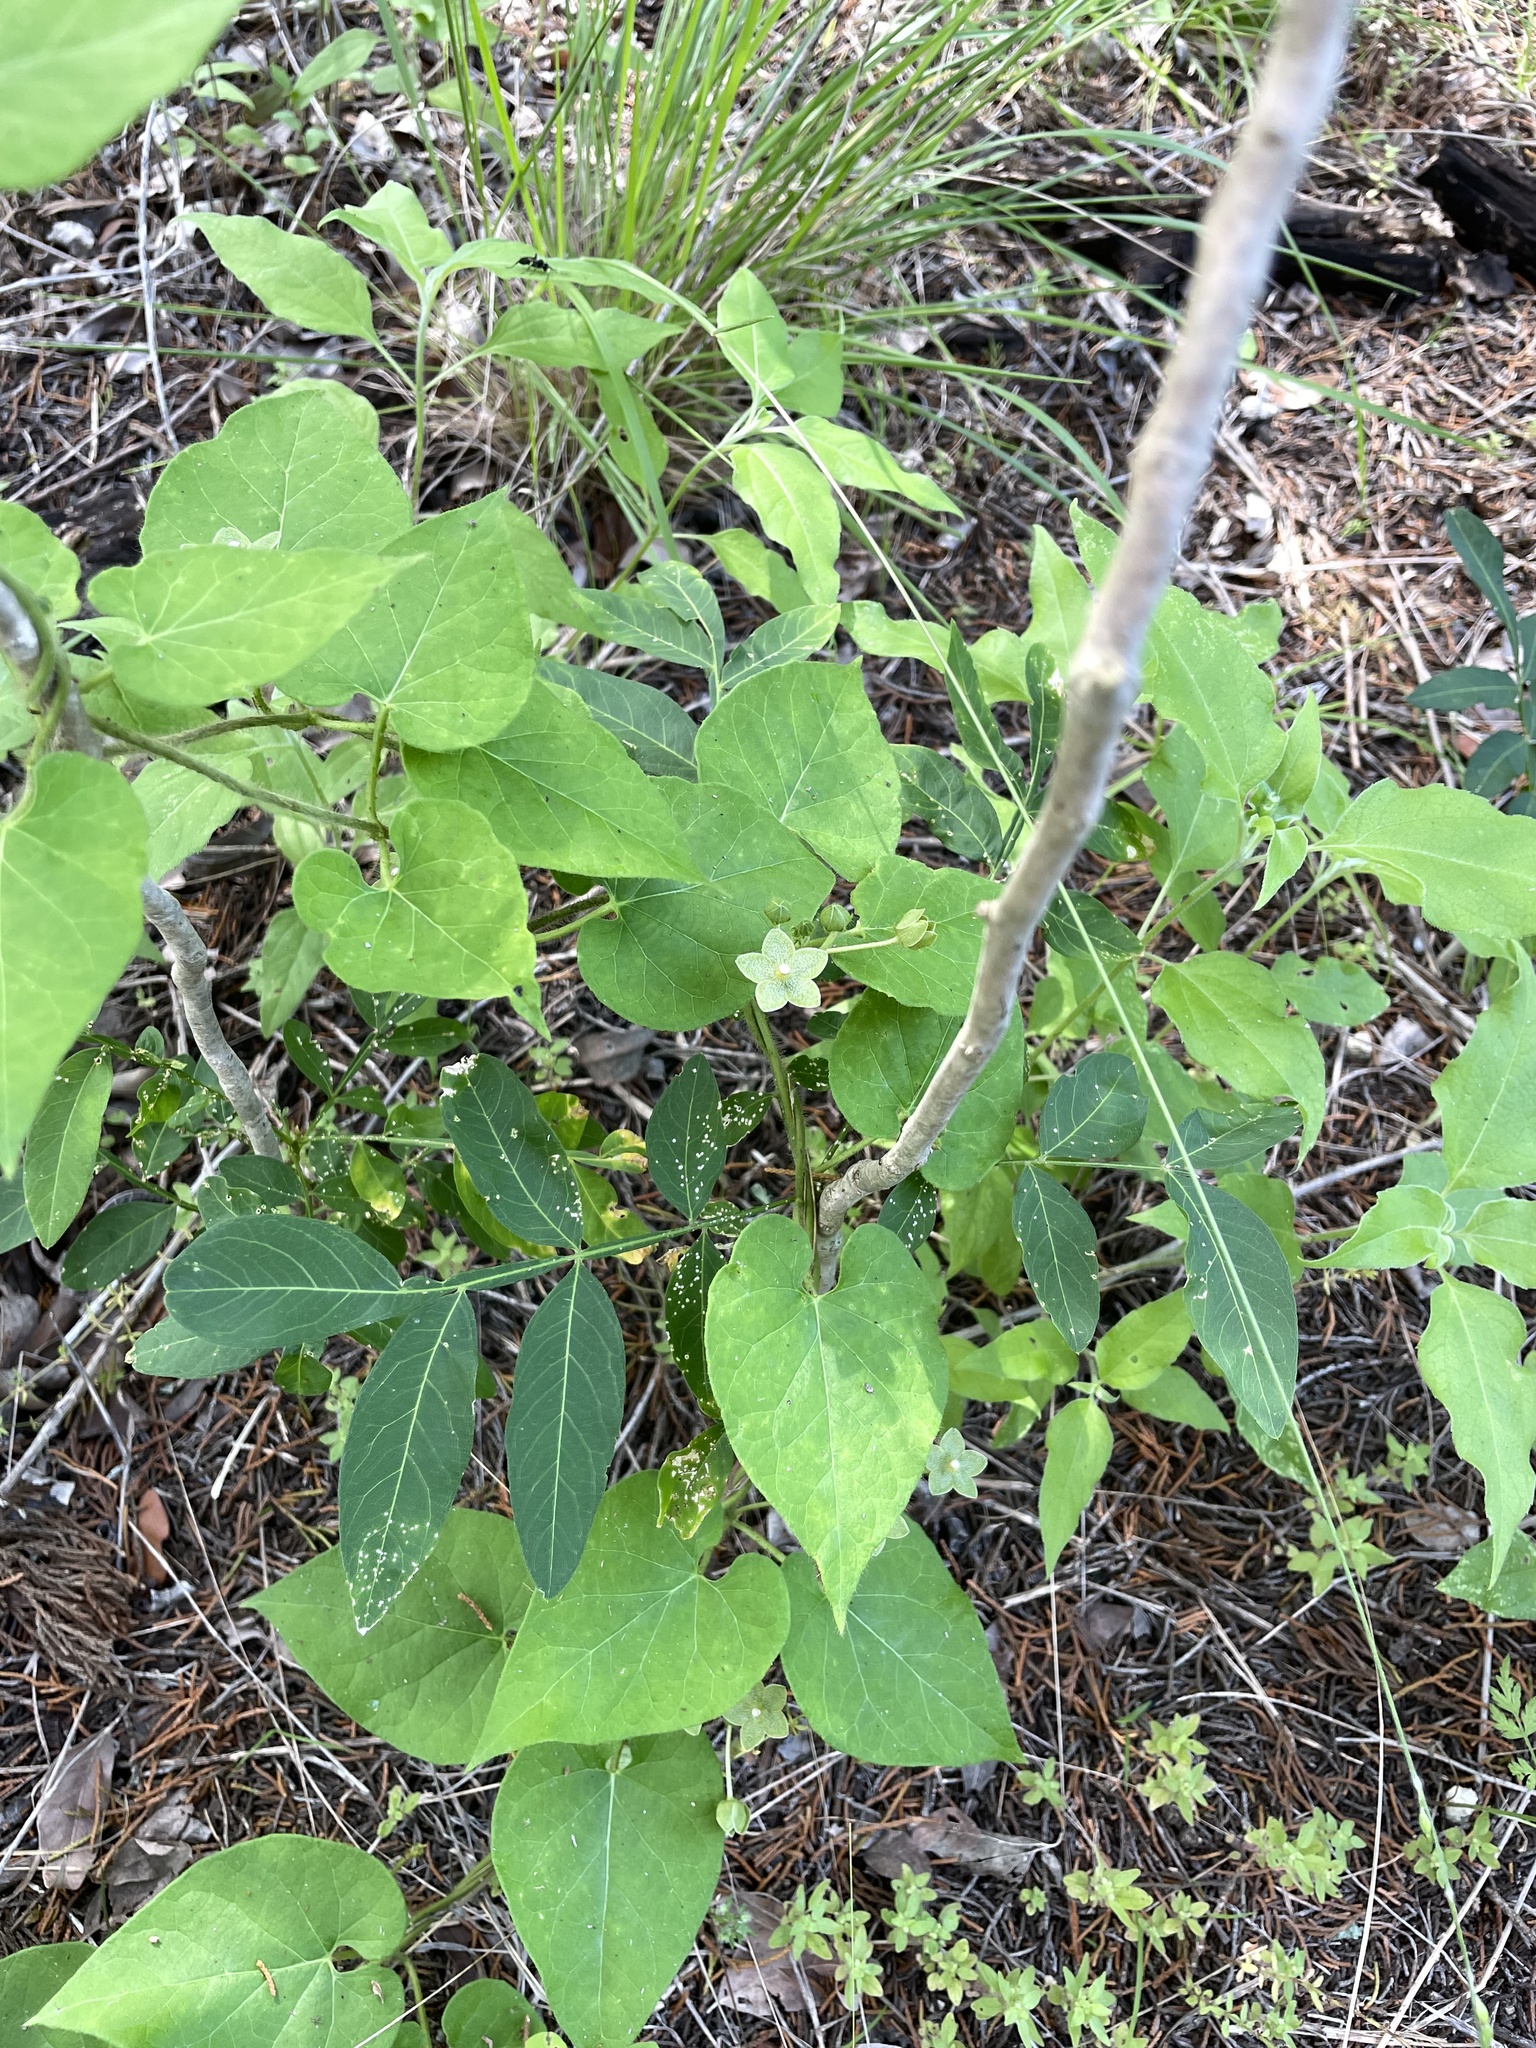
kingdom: Plantae
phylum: Tracheophyta
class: Magnoliopsida
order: Gentianales
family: Apocynaceae
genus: Dictyanthus
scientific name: Dictyanthus reticulatus
